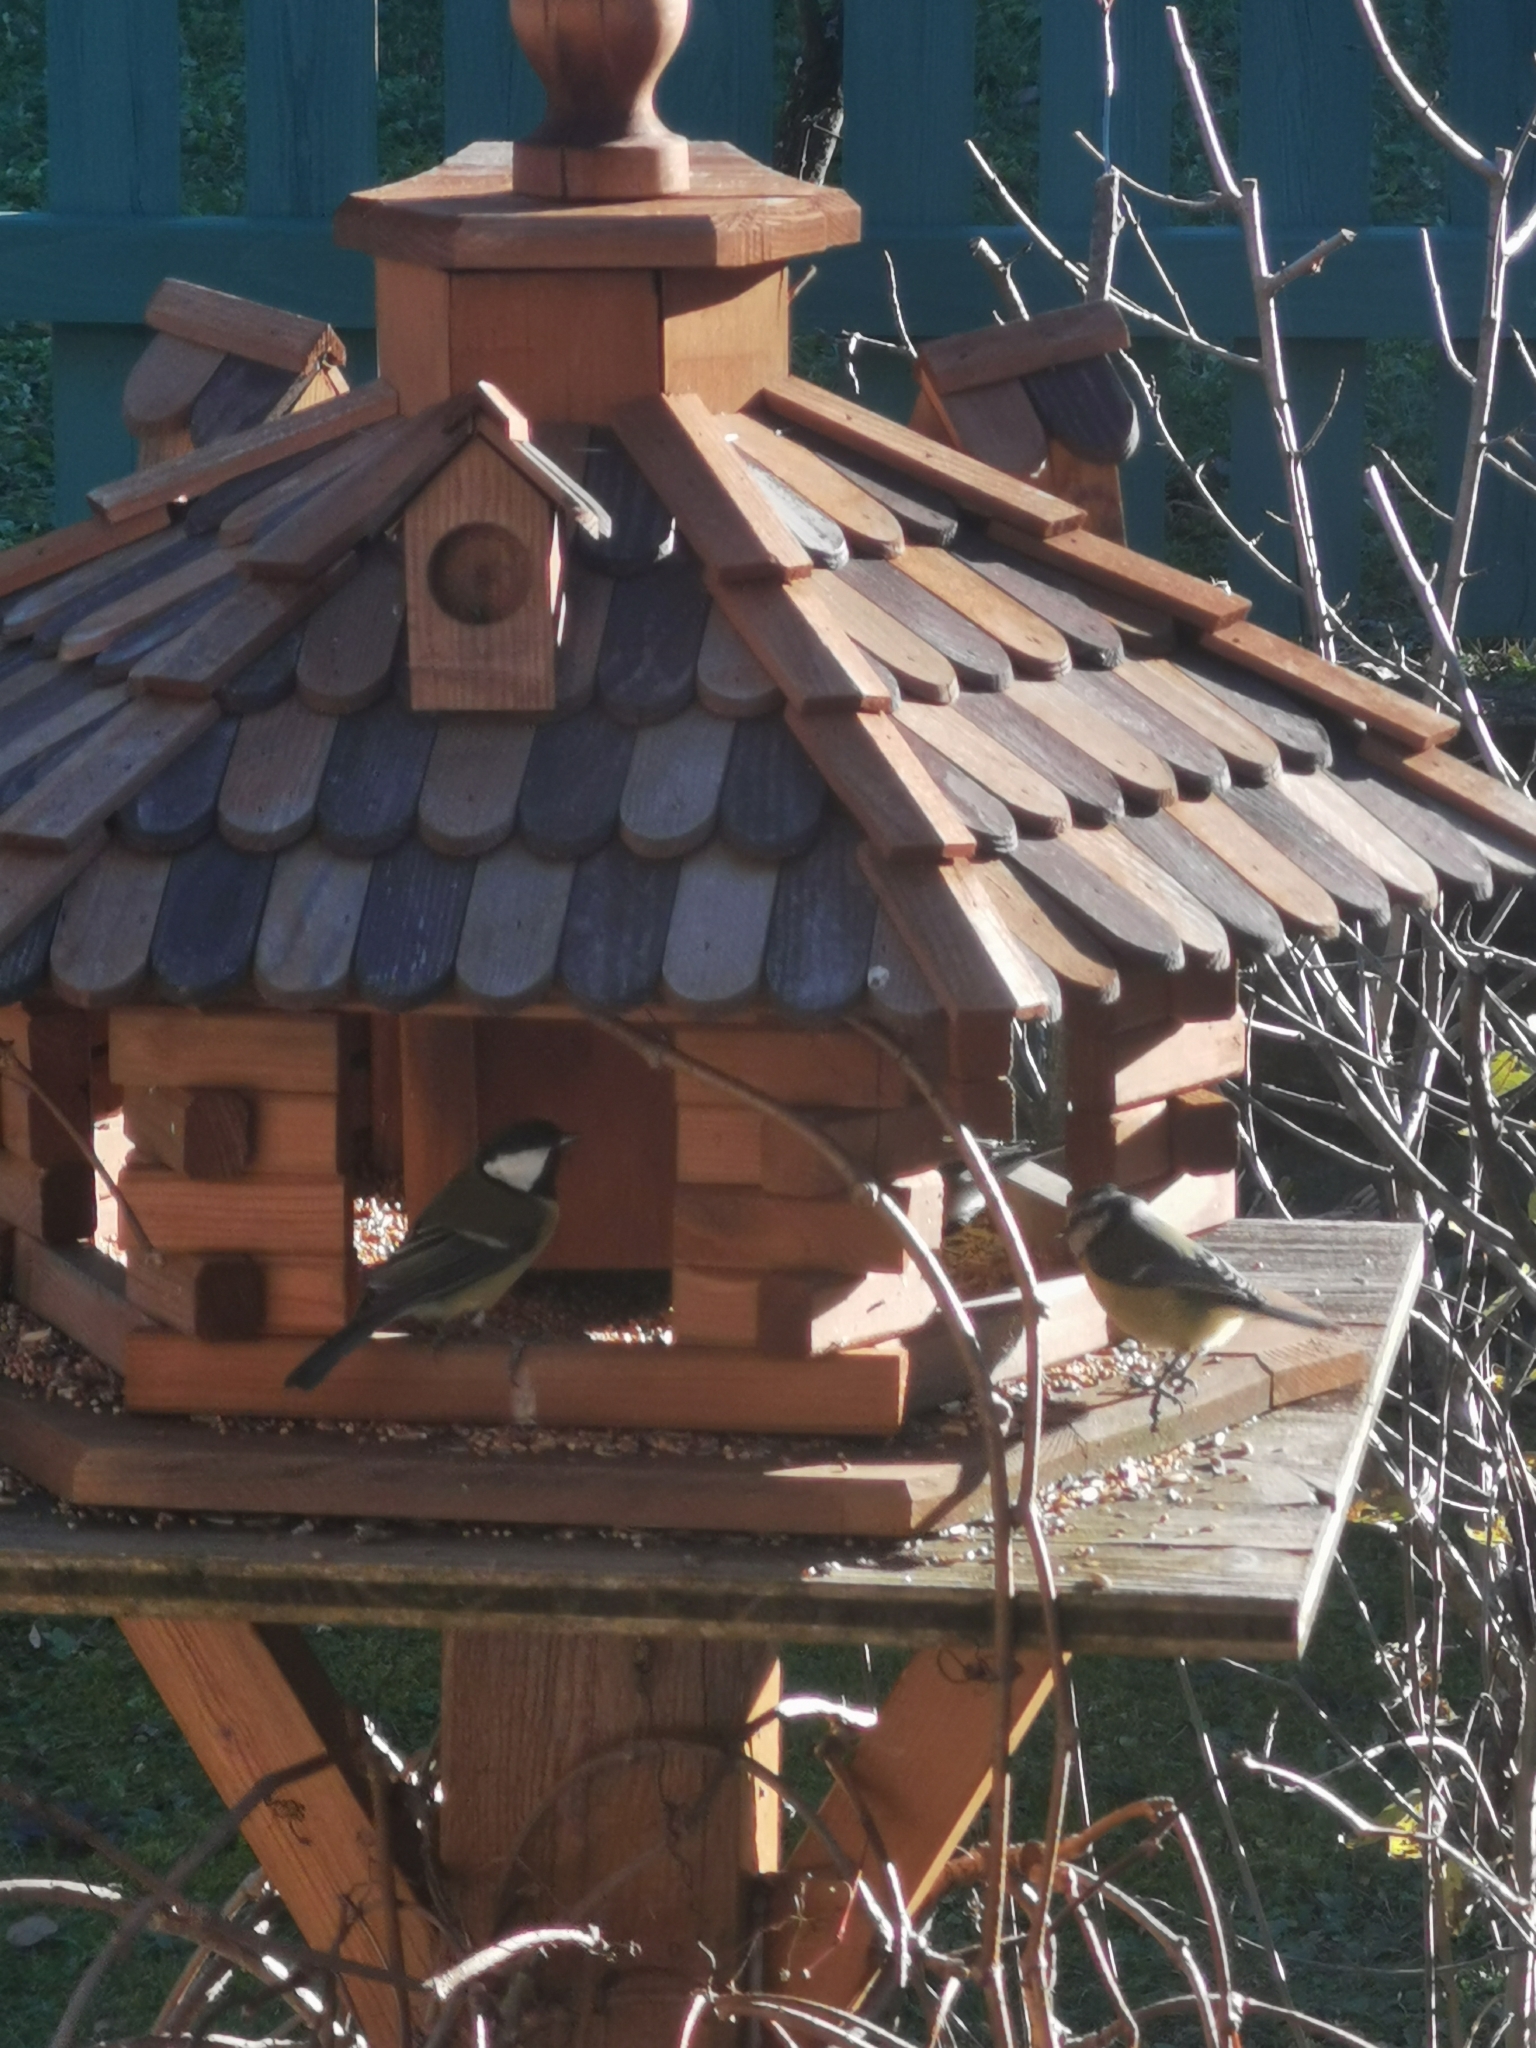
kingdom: Animalia
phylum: Chordata
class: Aves
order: Passeriformes
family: Paridae
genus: Parus
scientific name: Parus major
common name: Great tit
